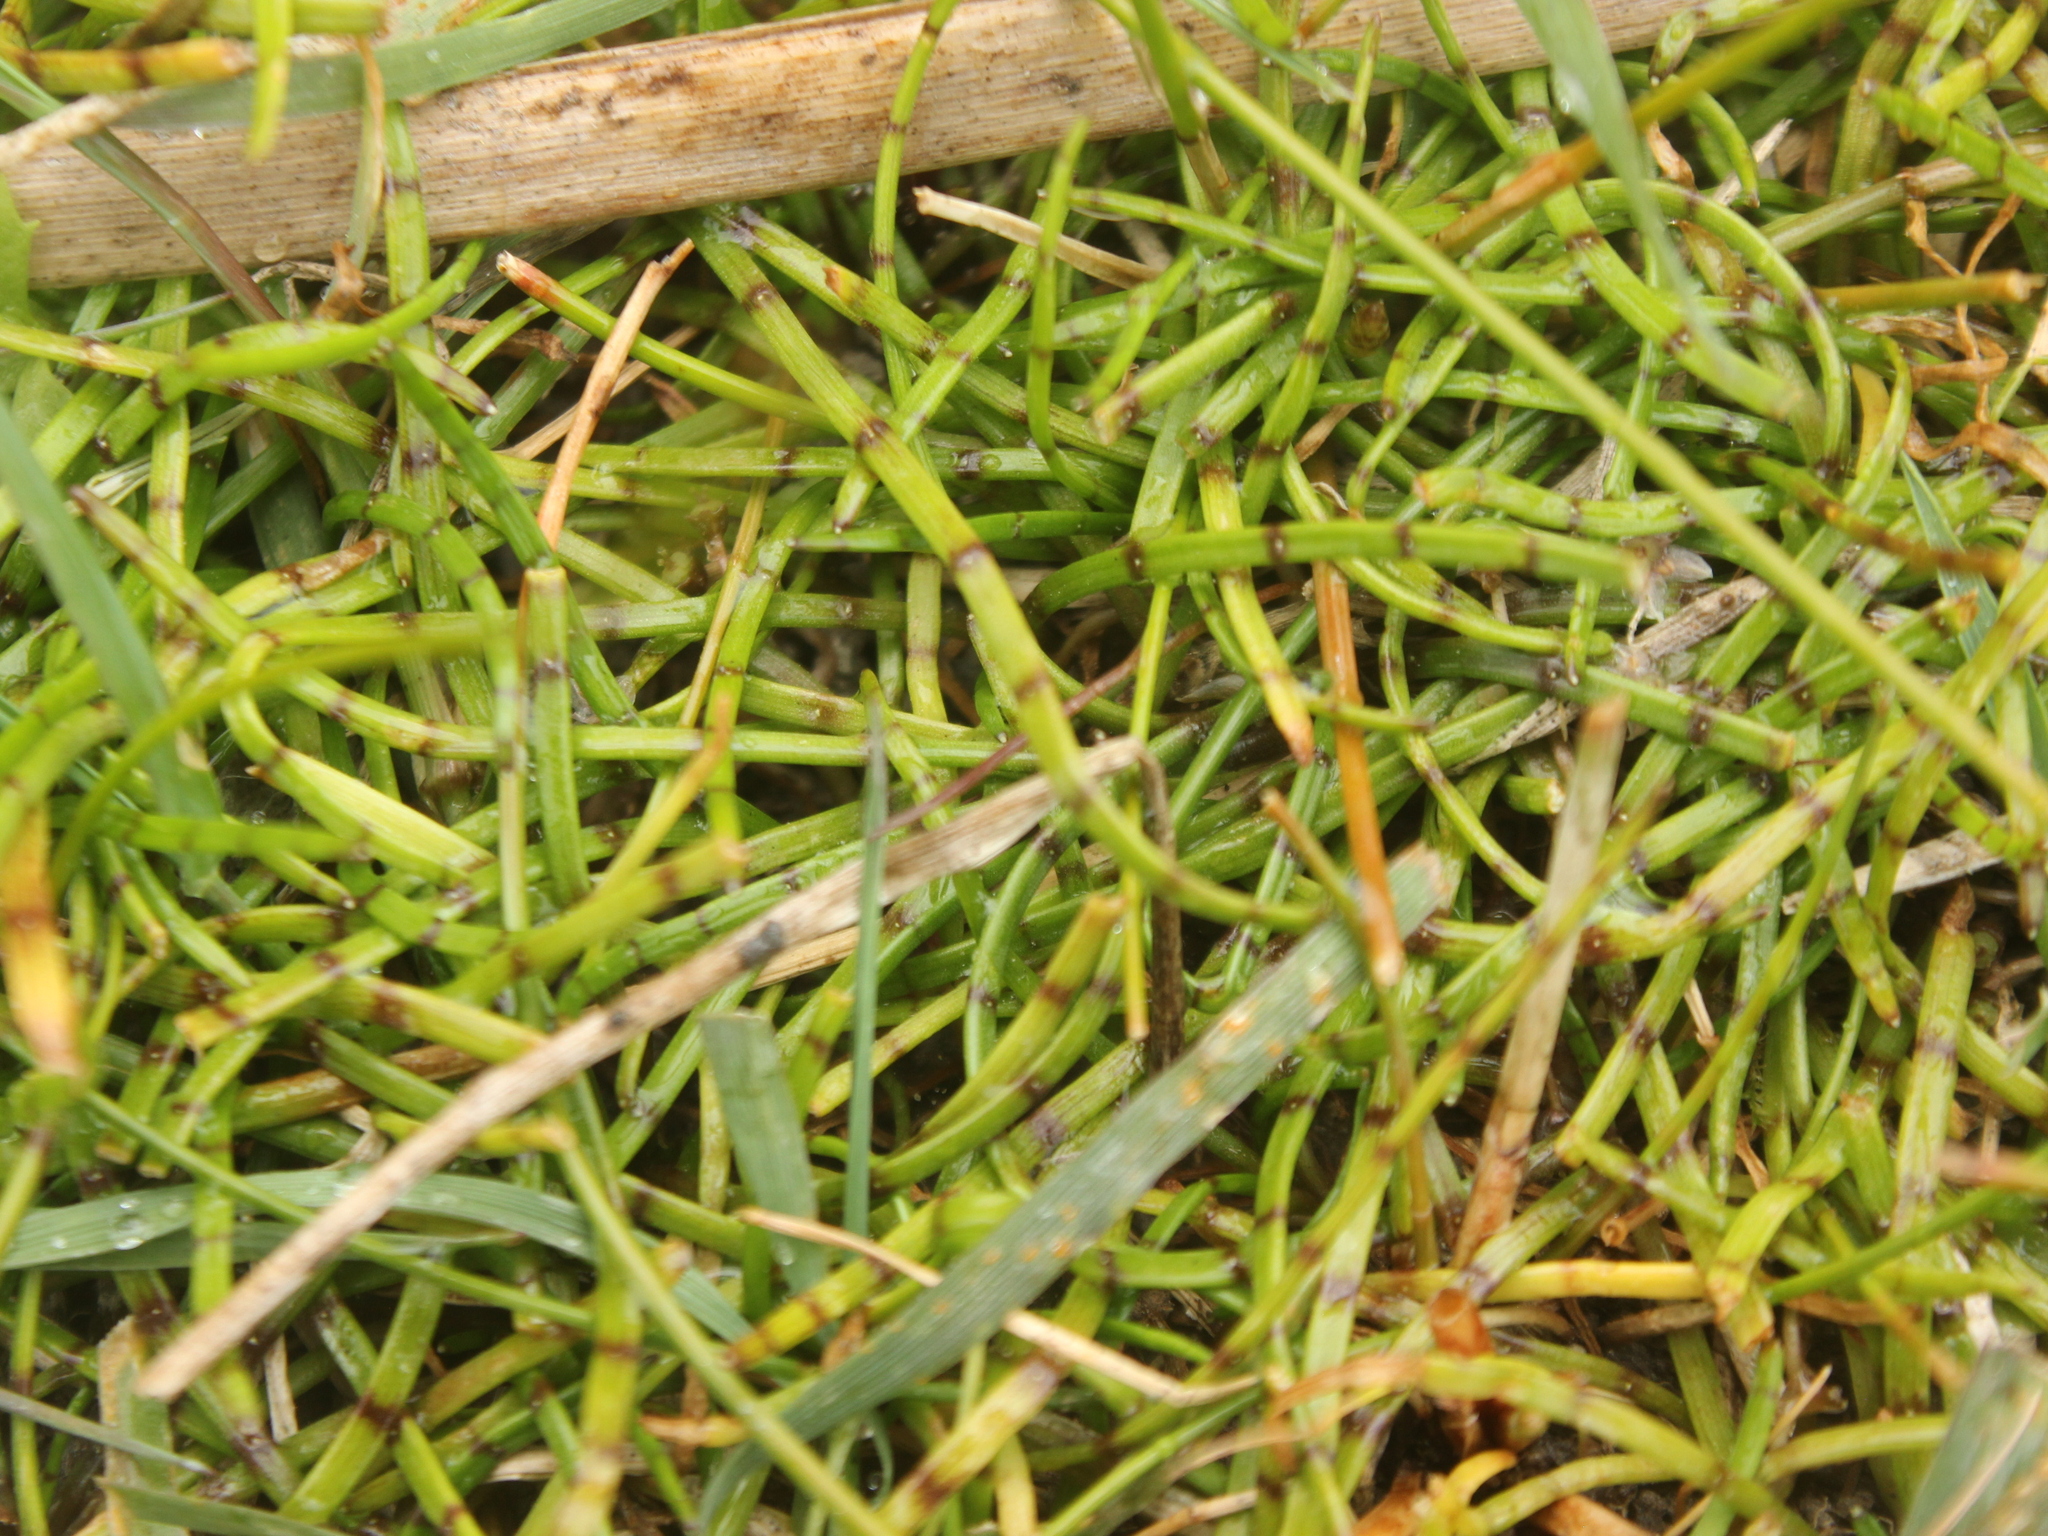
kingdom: Plantae
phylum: Tracheophyta
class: Magnoliopsida
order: Apiales
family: Apiaceae
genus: Lilaeopsis
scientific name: Lilaeopsis novae-zelandiae
